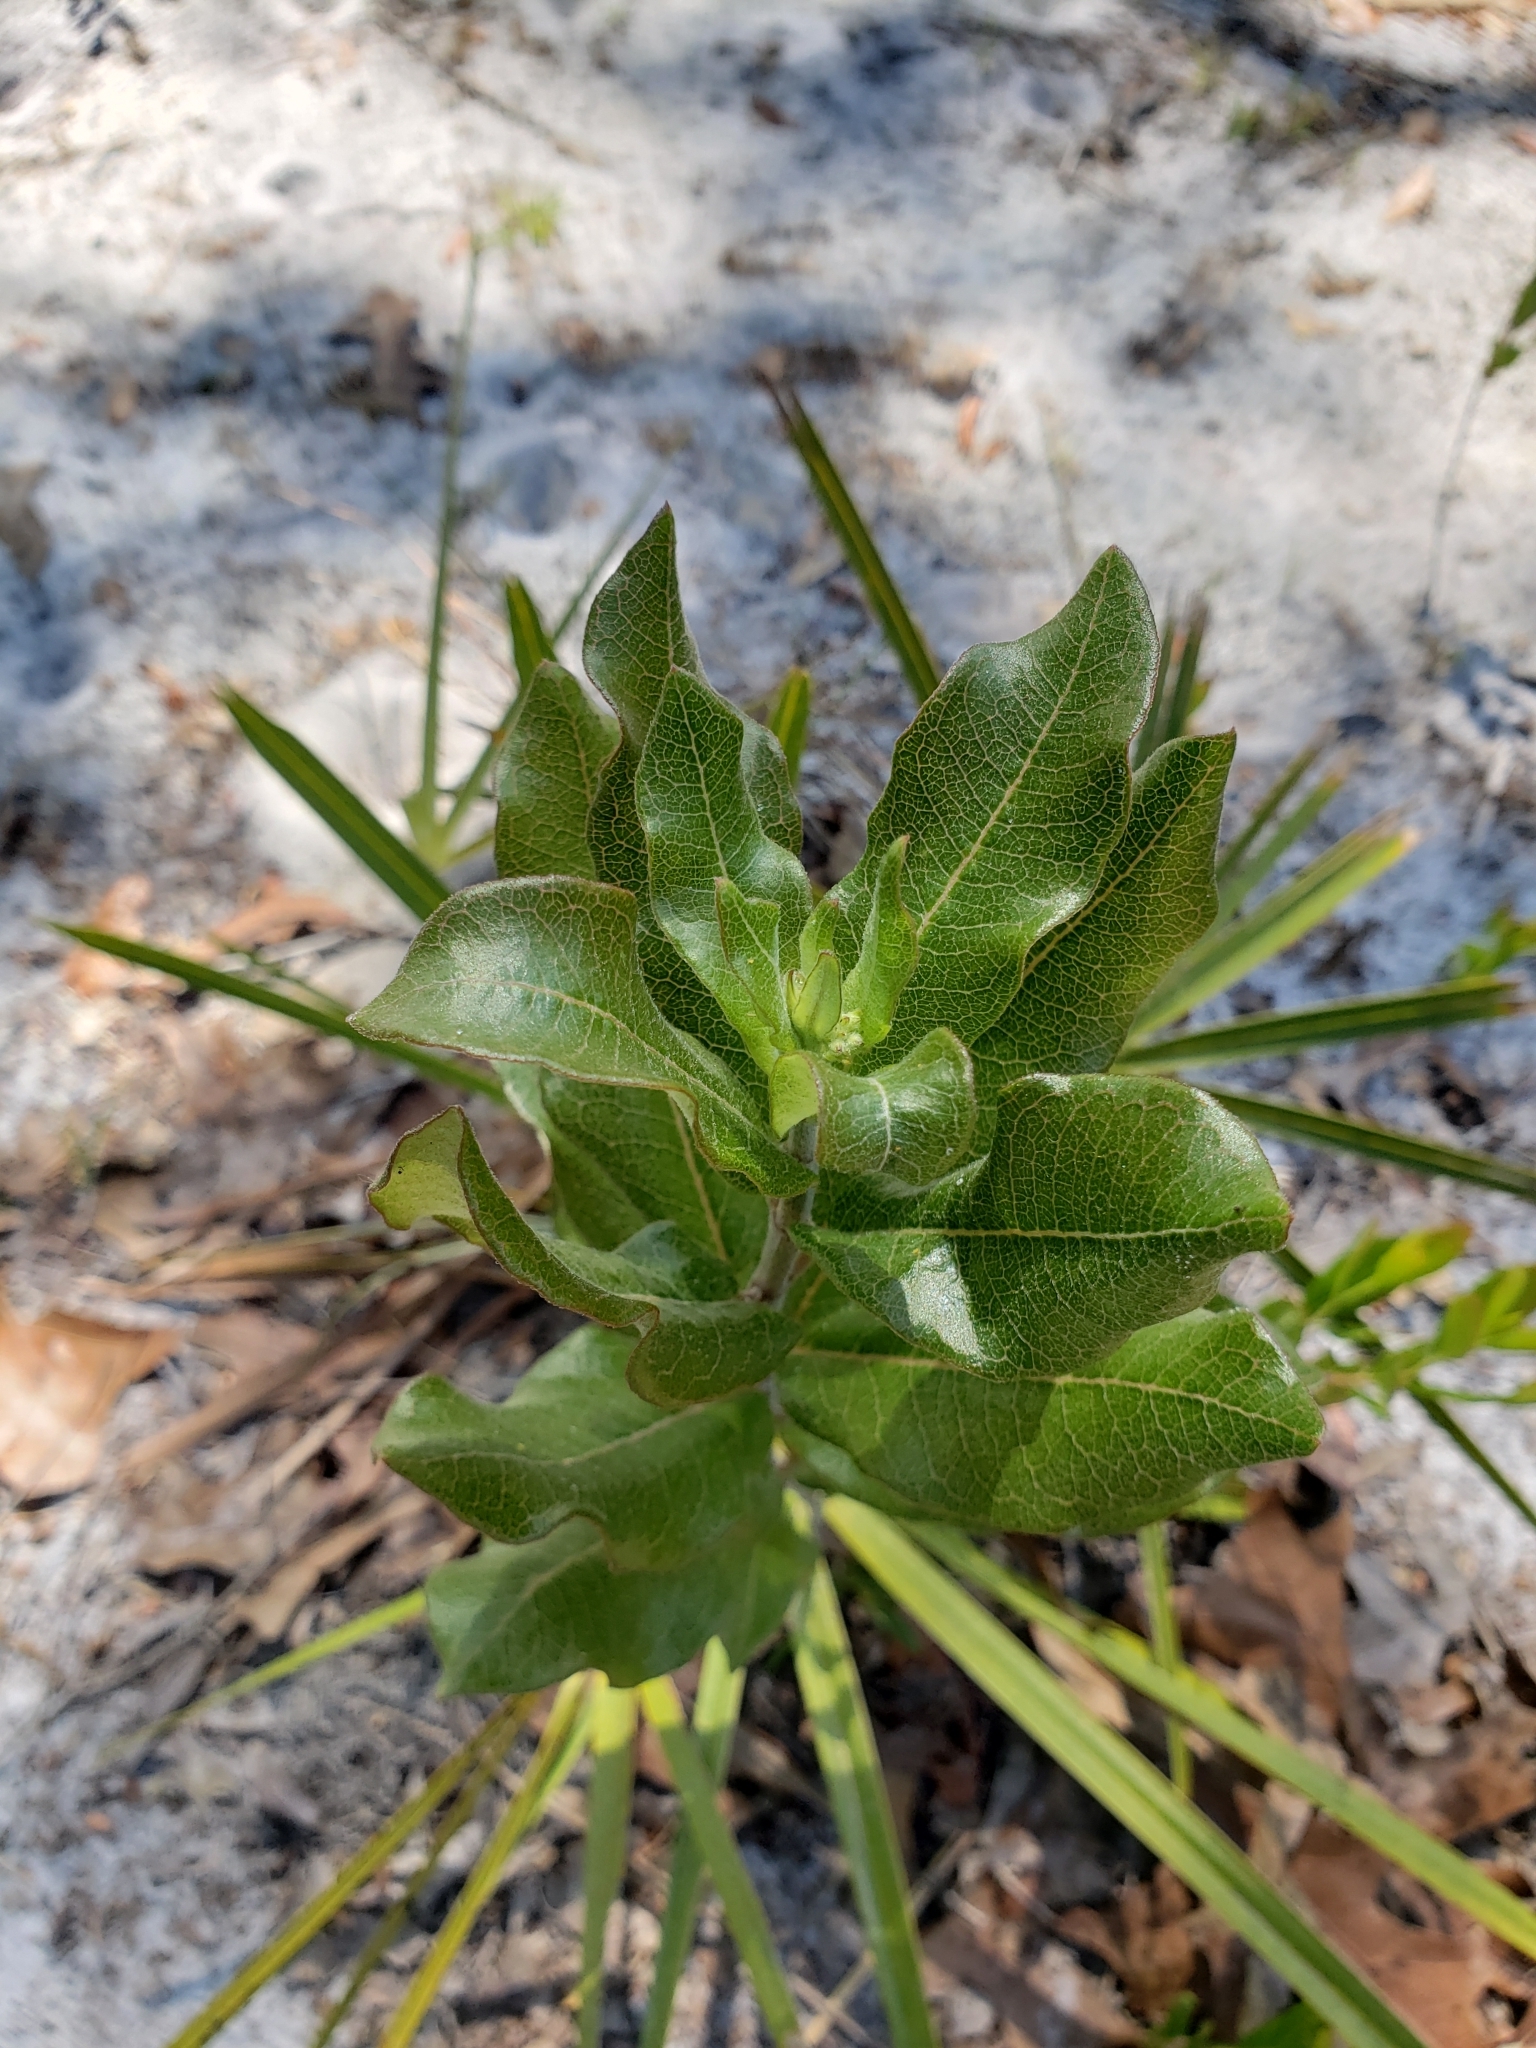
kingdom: Plantae
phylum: Tracheophyta
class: Magnoliopsida
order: Gentianales
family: Apocynaceae
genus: Asclepias
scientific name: Asclepias tomentosa
